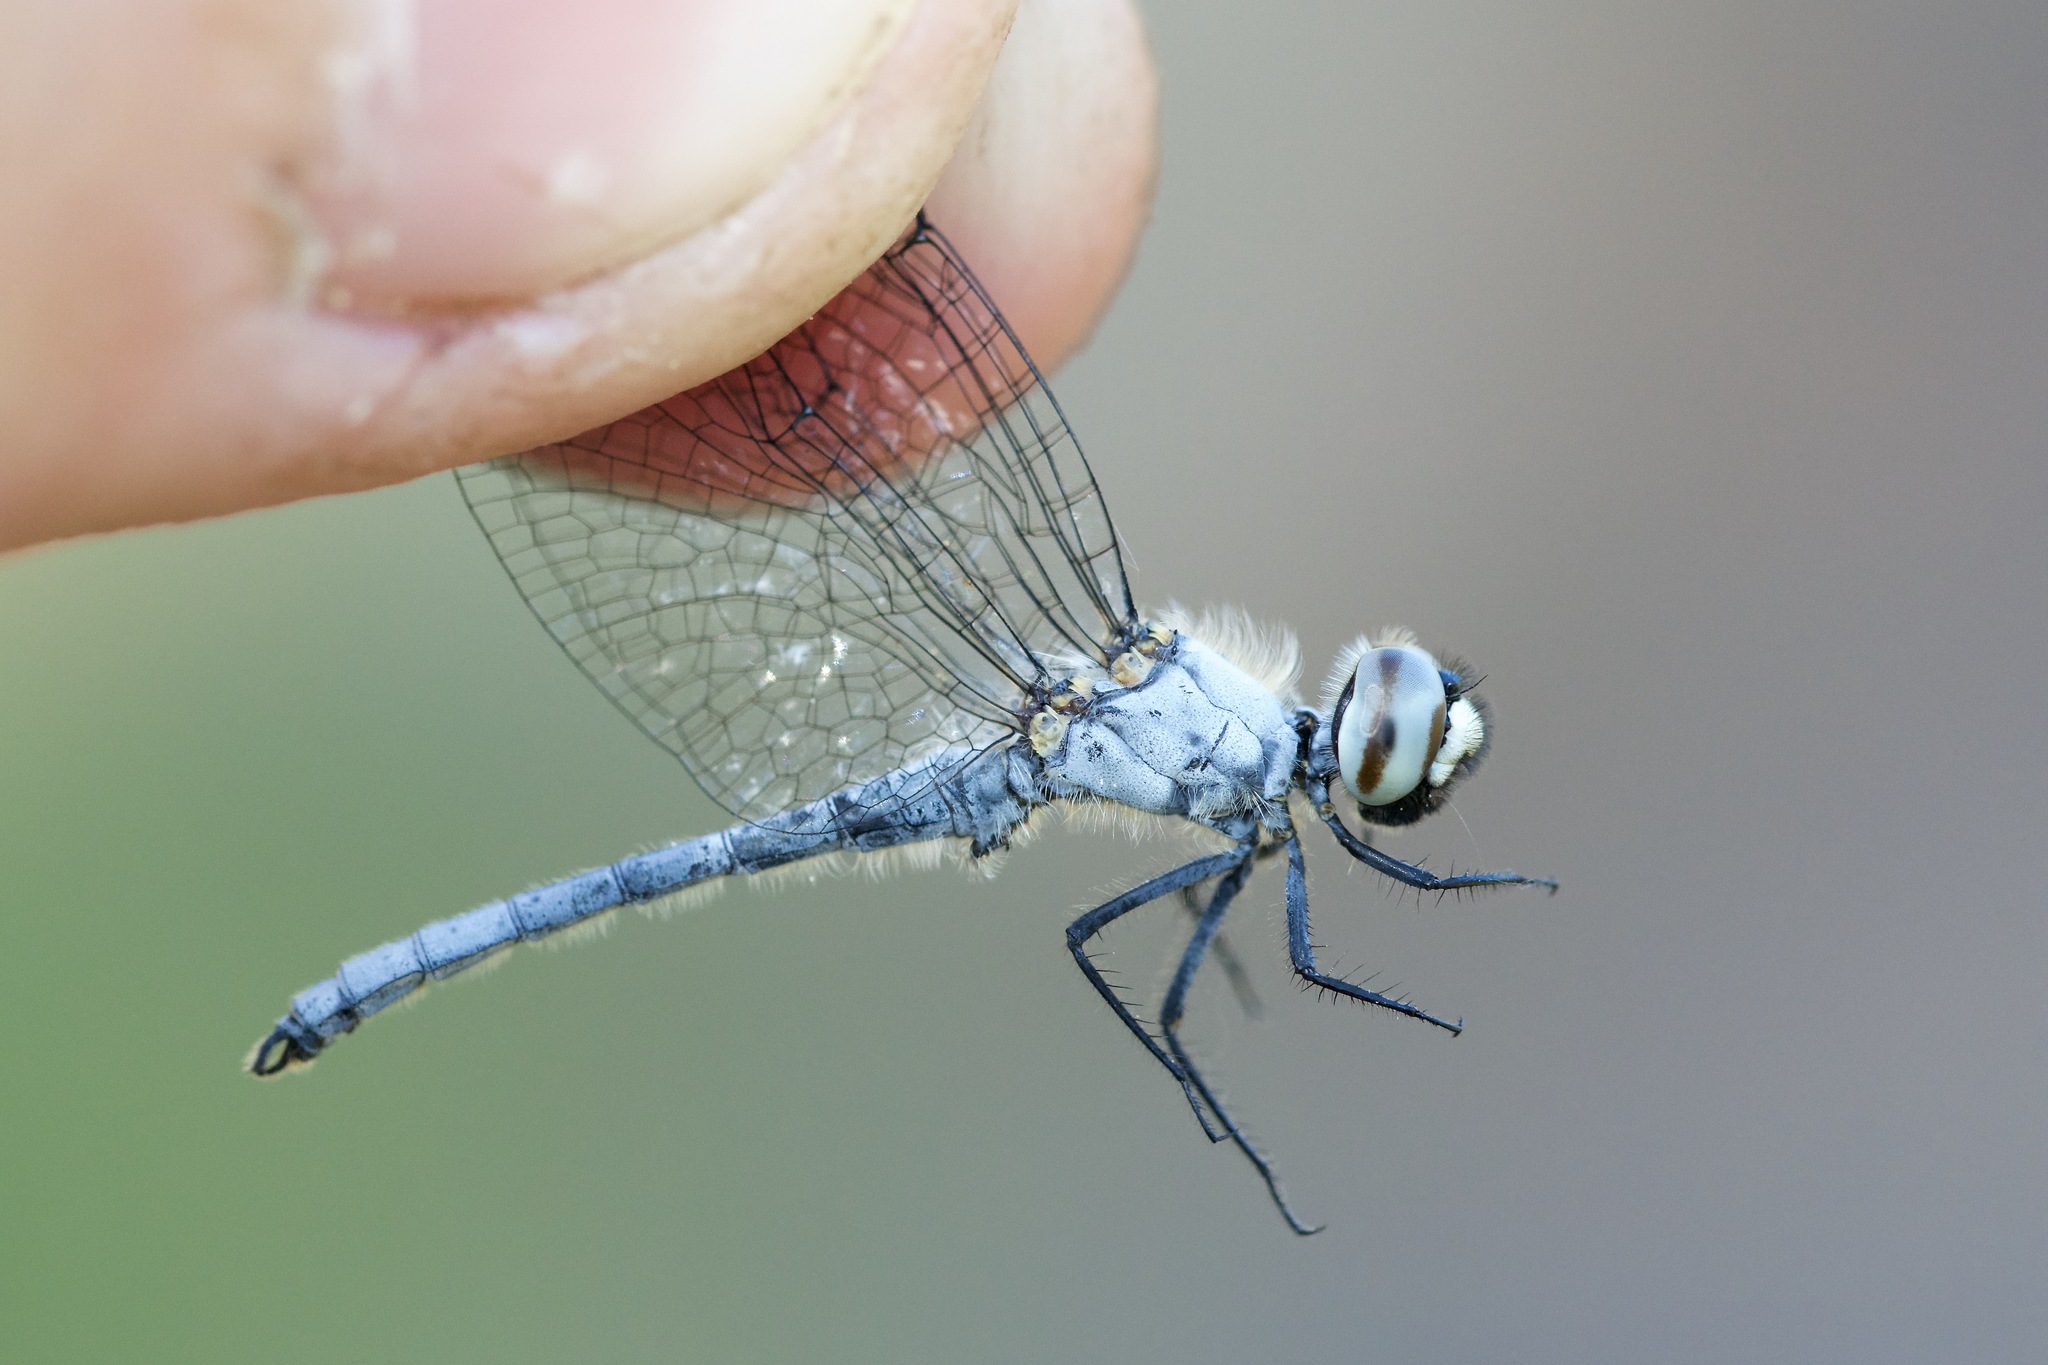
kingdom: Animalia
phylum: Arthropoda
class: Insecta
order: Odonata
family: Libellulidae
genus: Nannothemis
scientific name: Nannothemis bella
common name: Elfin skimmer
